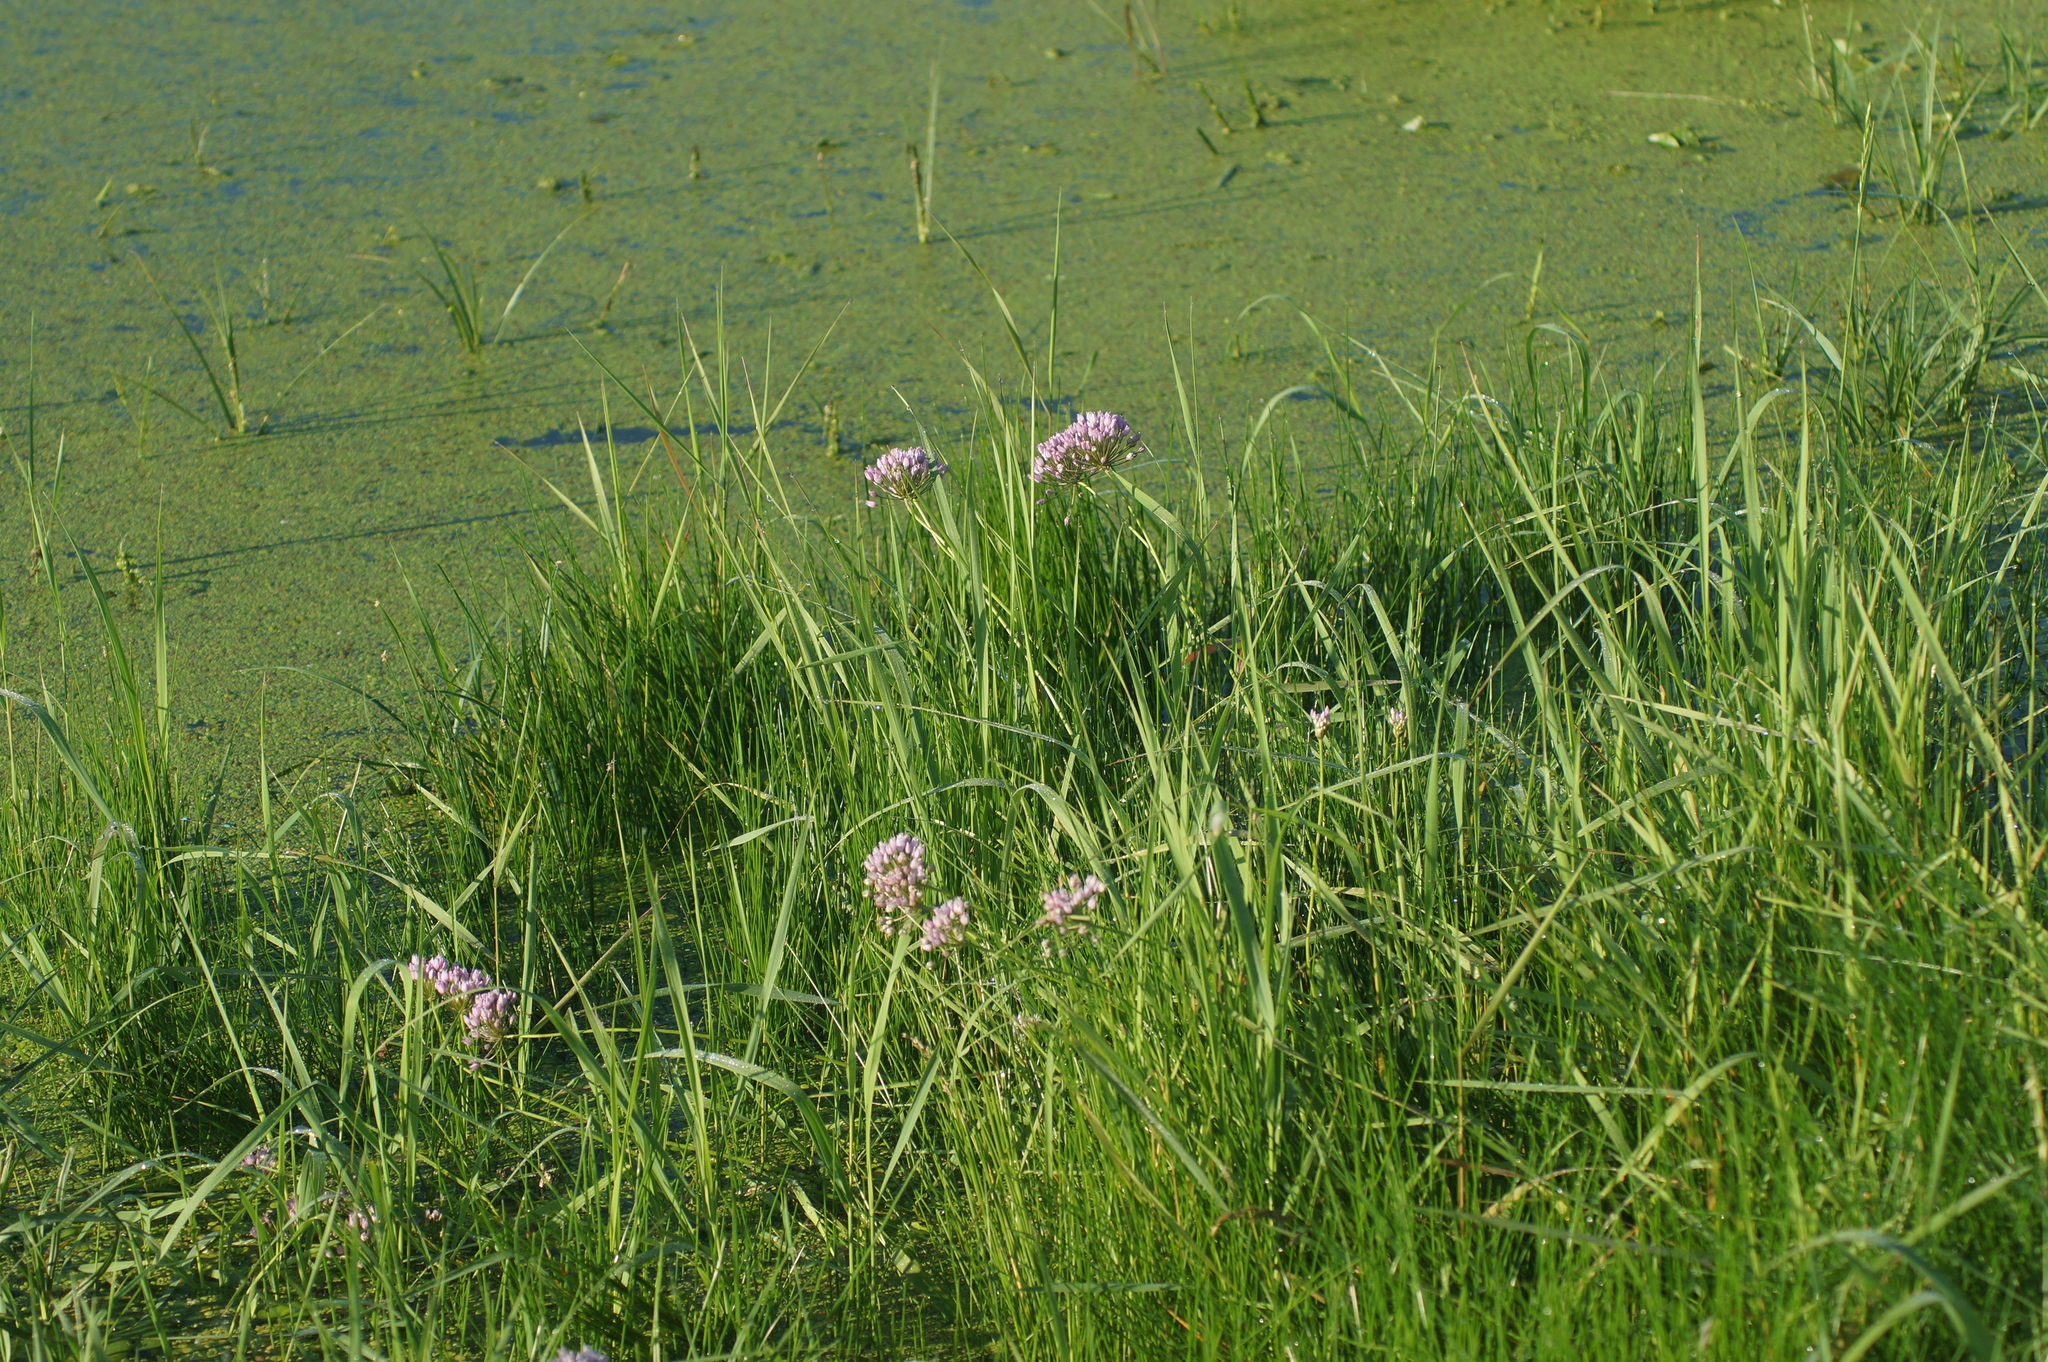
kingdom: Plantae
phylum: Tracheophyta
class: Liliopsida
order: Asparagales
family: Amaryllidaceae
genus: Allium
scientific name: Allium angulosum
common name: Mouse garlic
